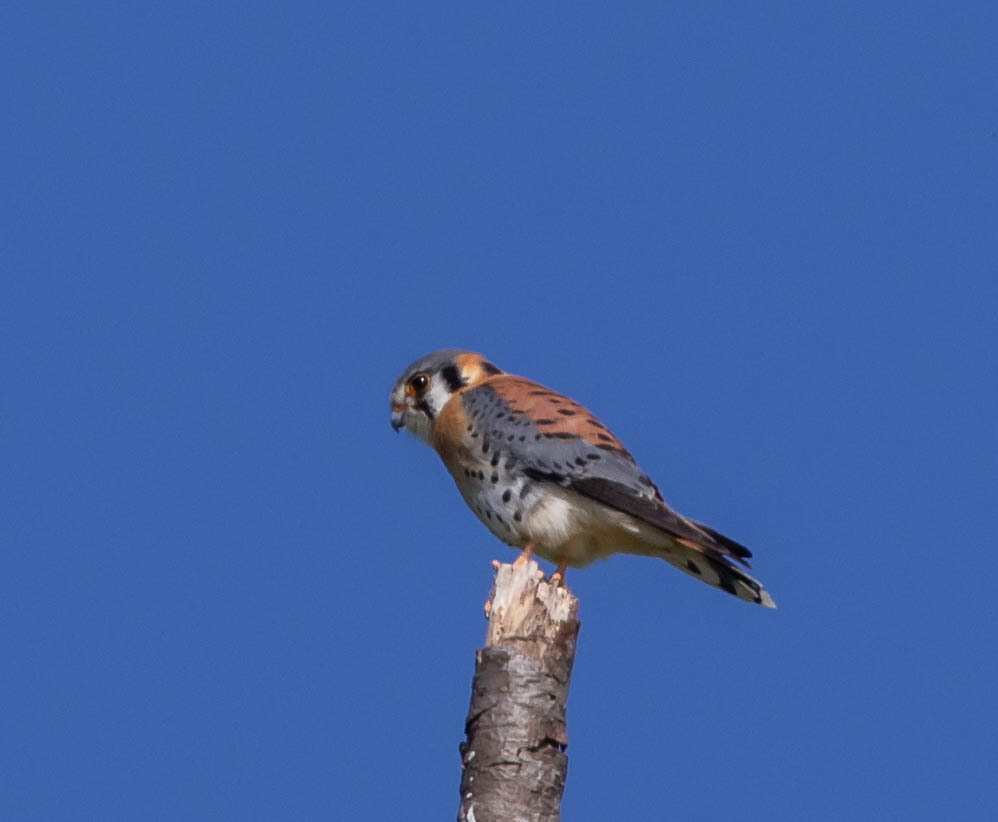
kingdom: Animalia
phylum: Chordata
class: Aves
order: Falconiformes
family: Falconidae
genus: Falco
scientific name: Falco sparverius
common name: American kestrel
